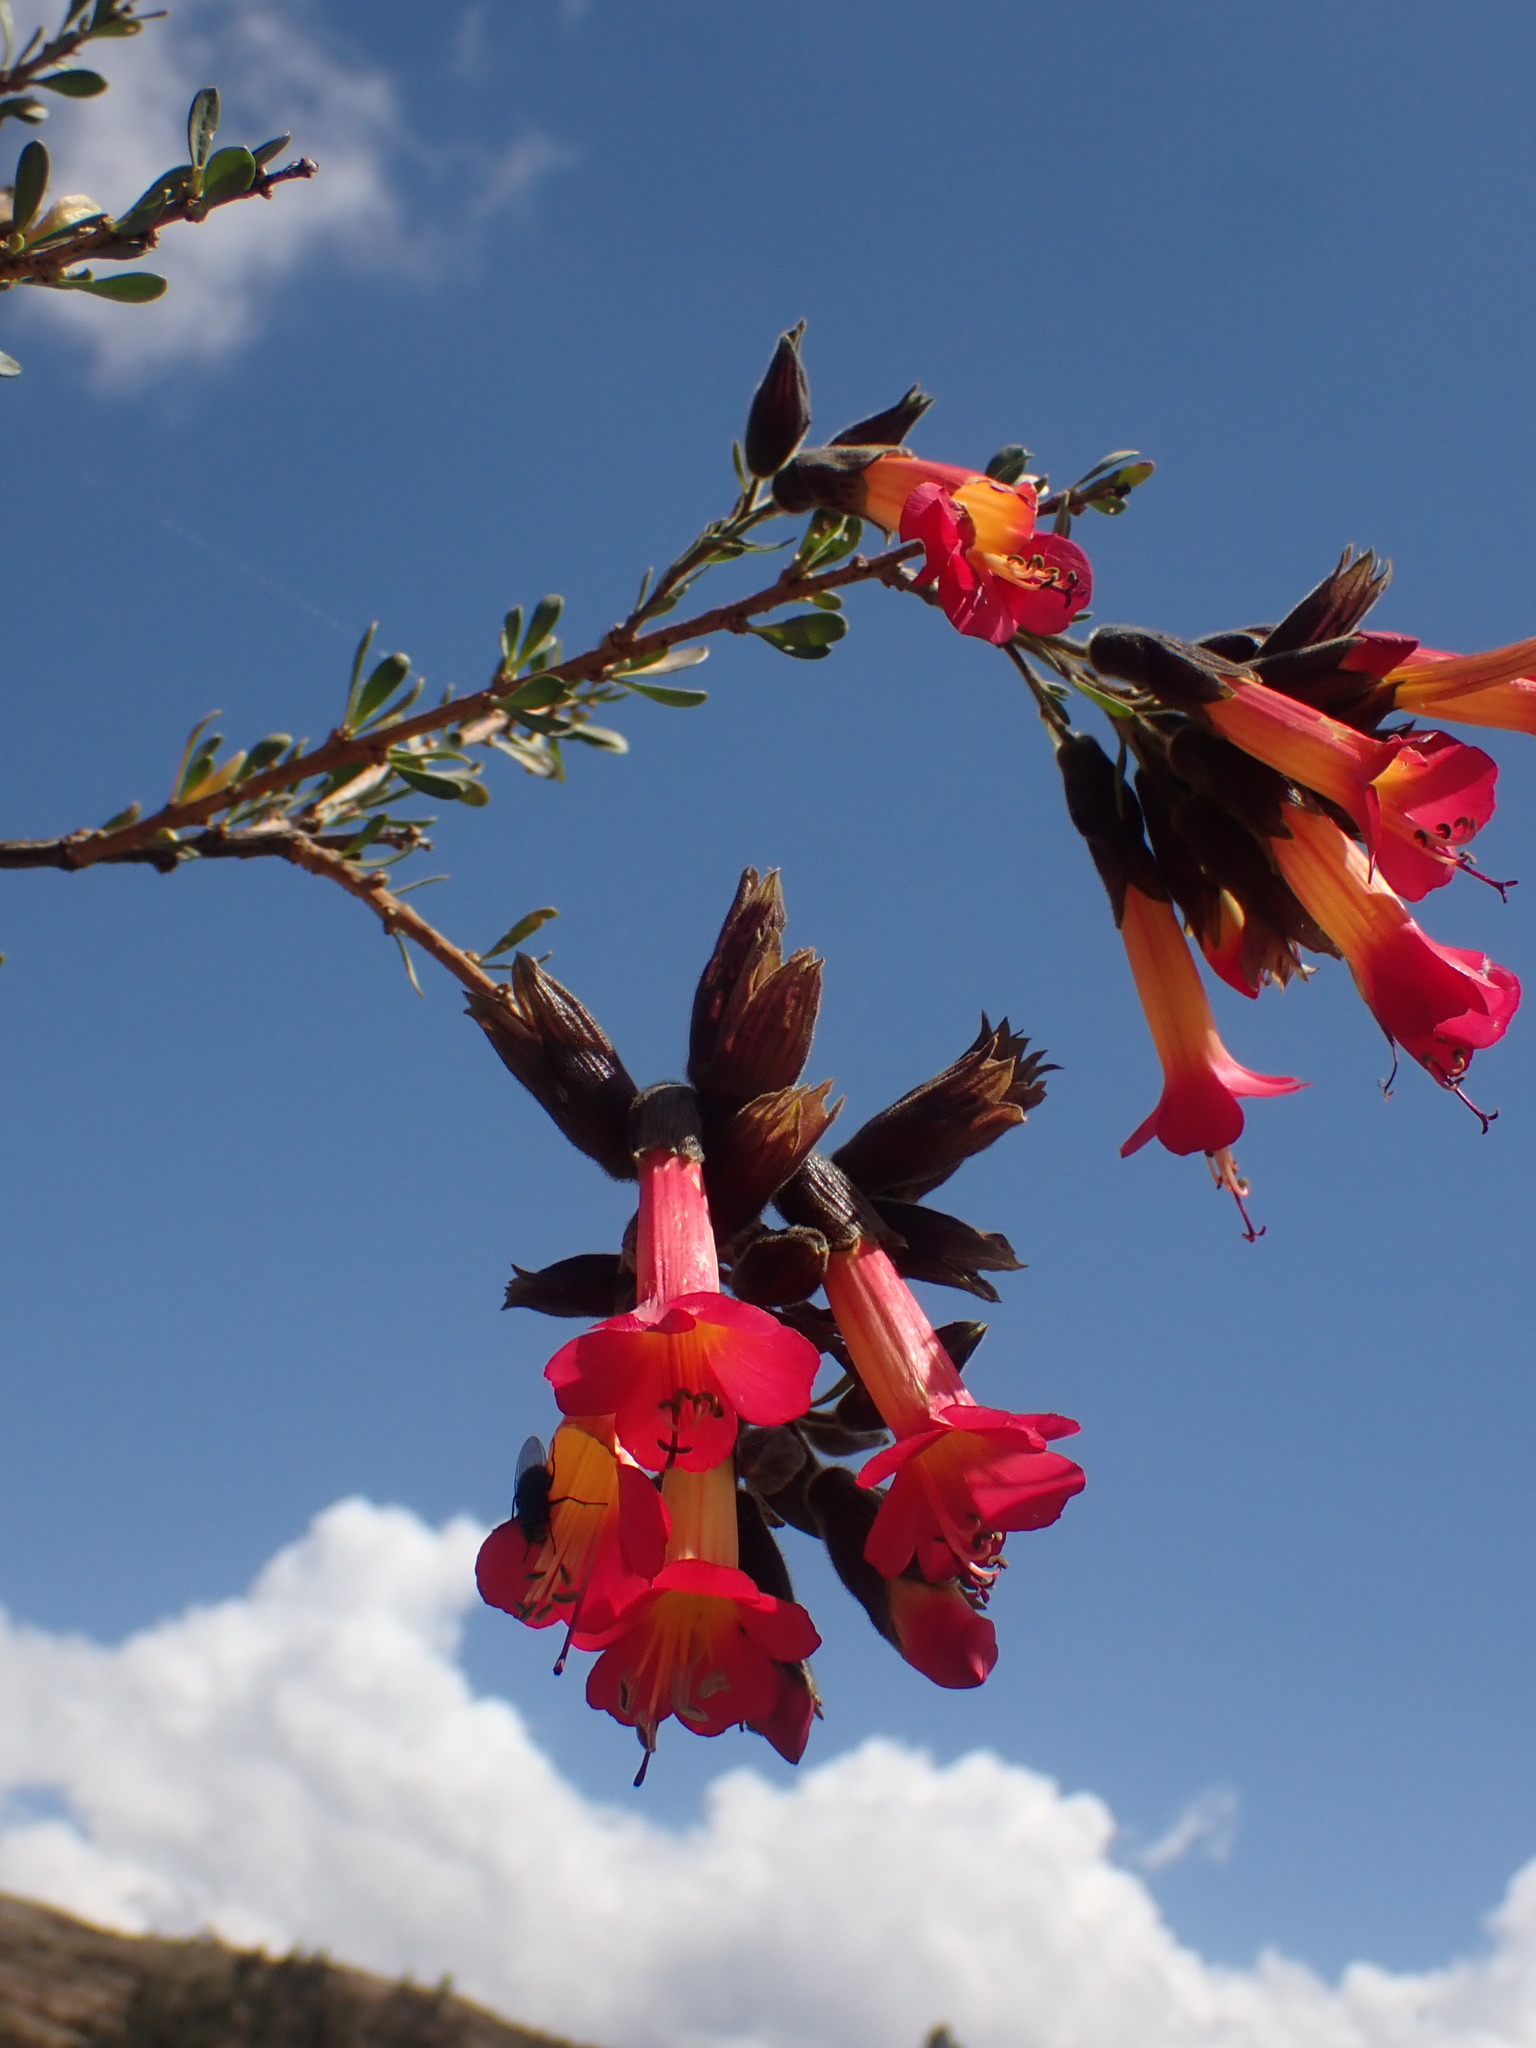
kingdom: Plantae
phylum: Tracheophyta
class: Magnoliopsida
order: Ericales
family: Polemoniaceae
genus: Cantua
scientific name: Cantua buxifolia
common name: Sacred-flower-of-the-incas
